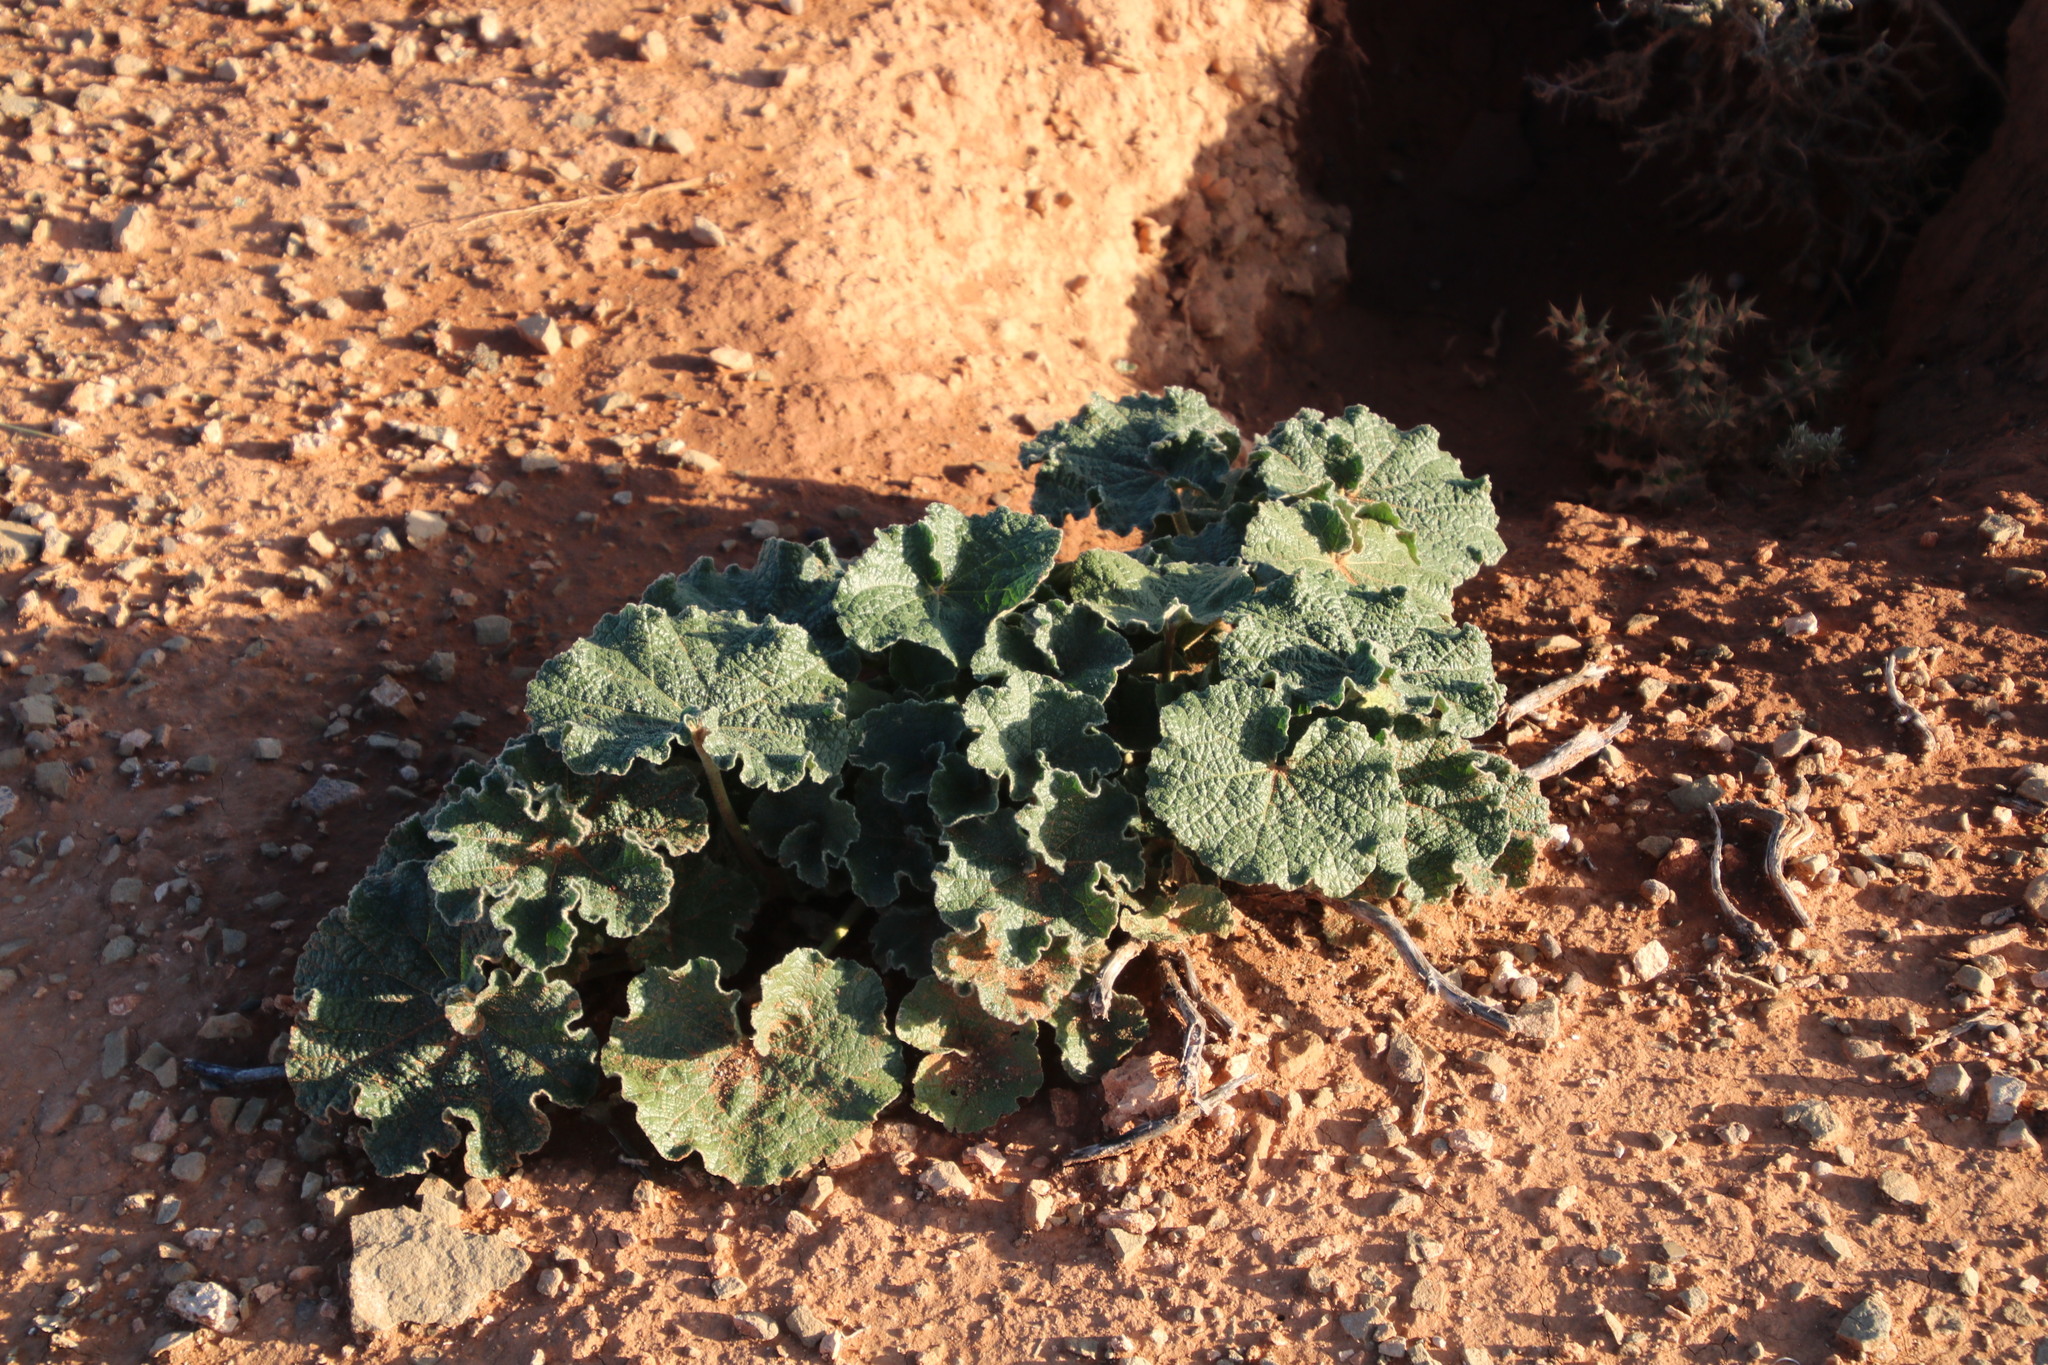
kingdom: Plantae
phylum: Tracheophyta
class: Magnoliopsida
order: Malvales
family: Malvaceae
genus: Radyera
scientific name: Radyera urens
